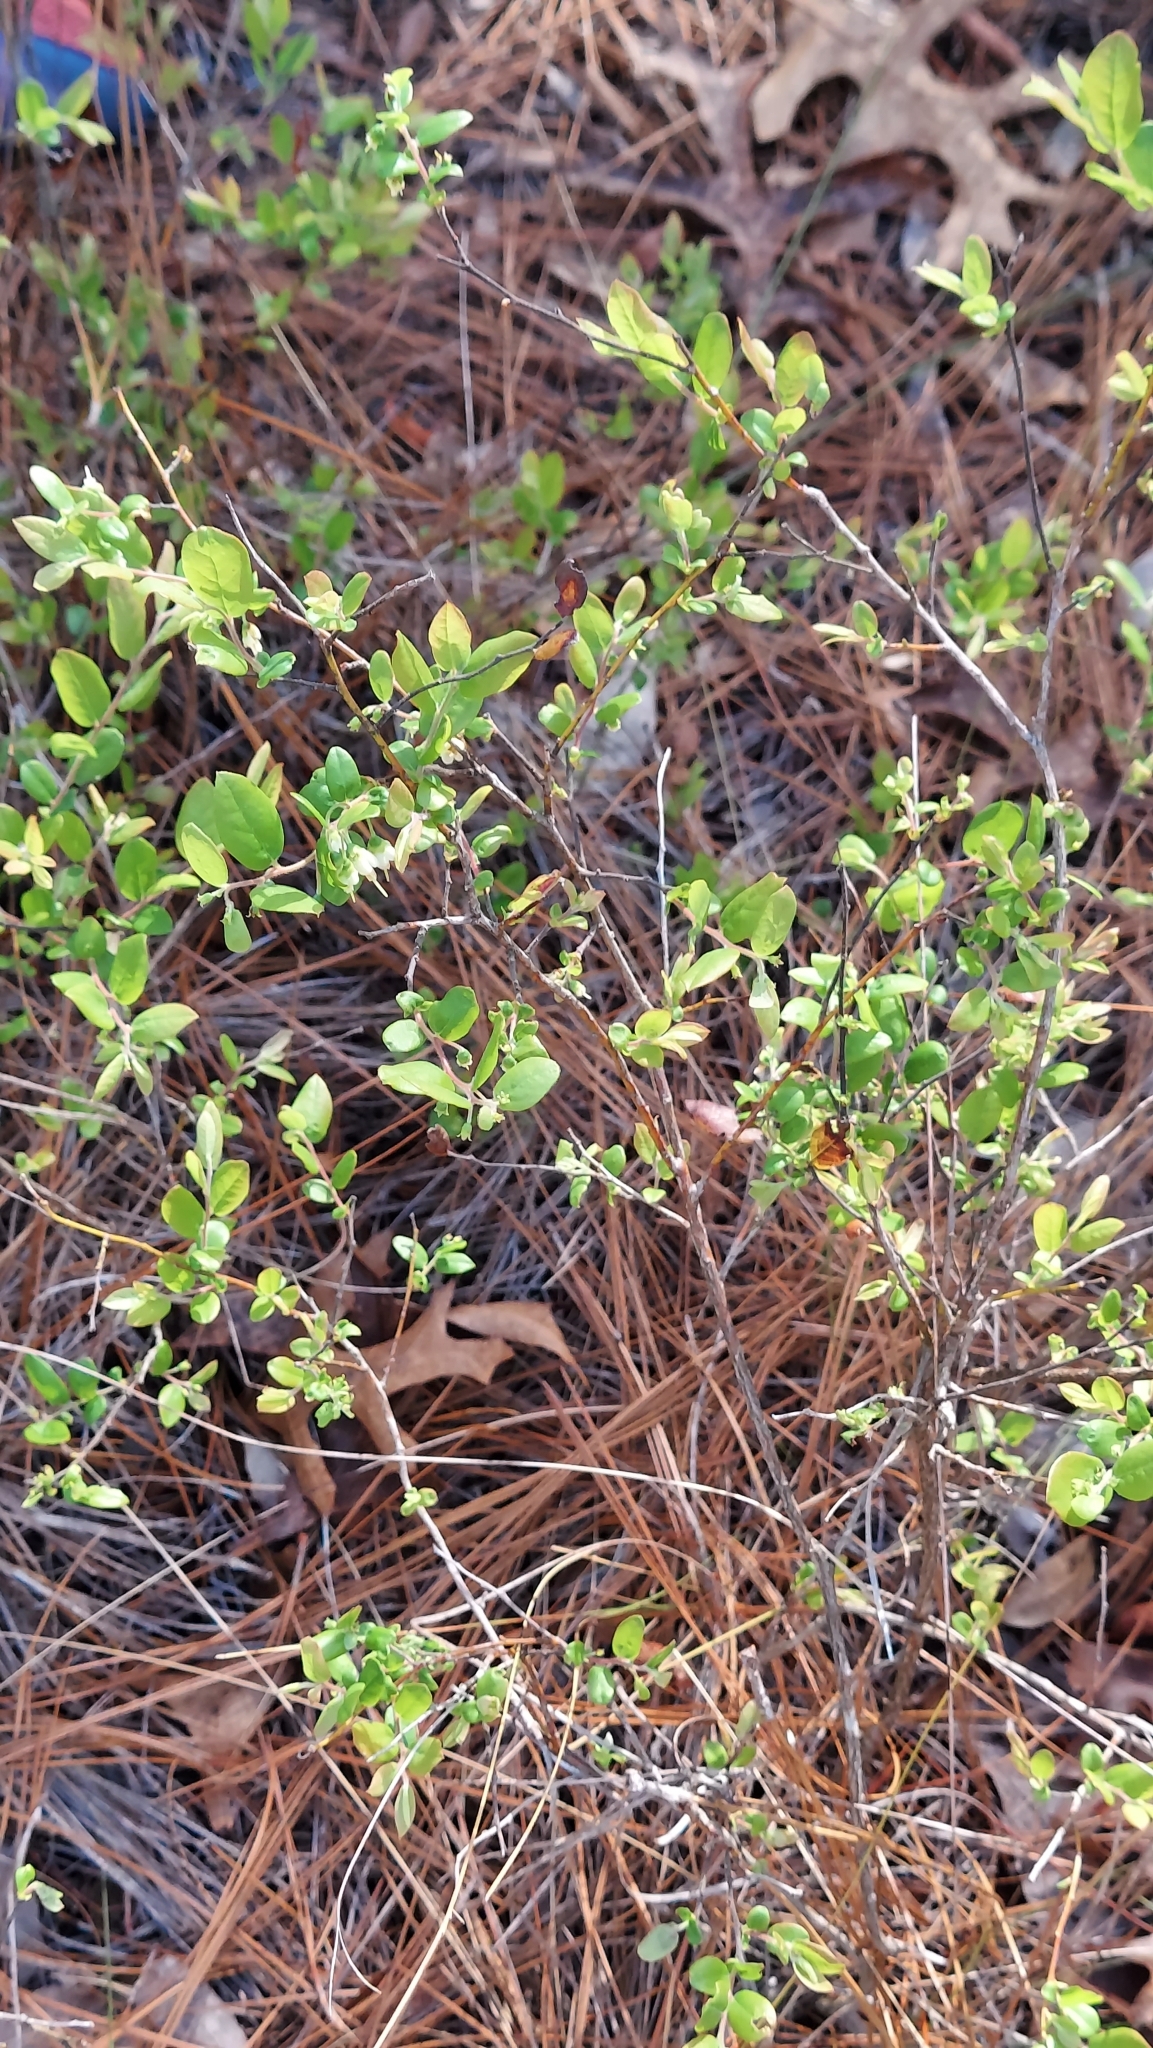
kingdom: Plantae
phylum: Tracheophyta
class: Magnoliopsida
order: Ericales
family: Ericaceae
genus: Vaccinium
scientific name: Vaccinium stamineum
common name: Deerberry
